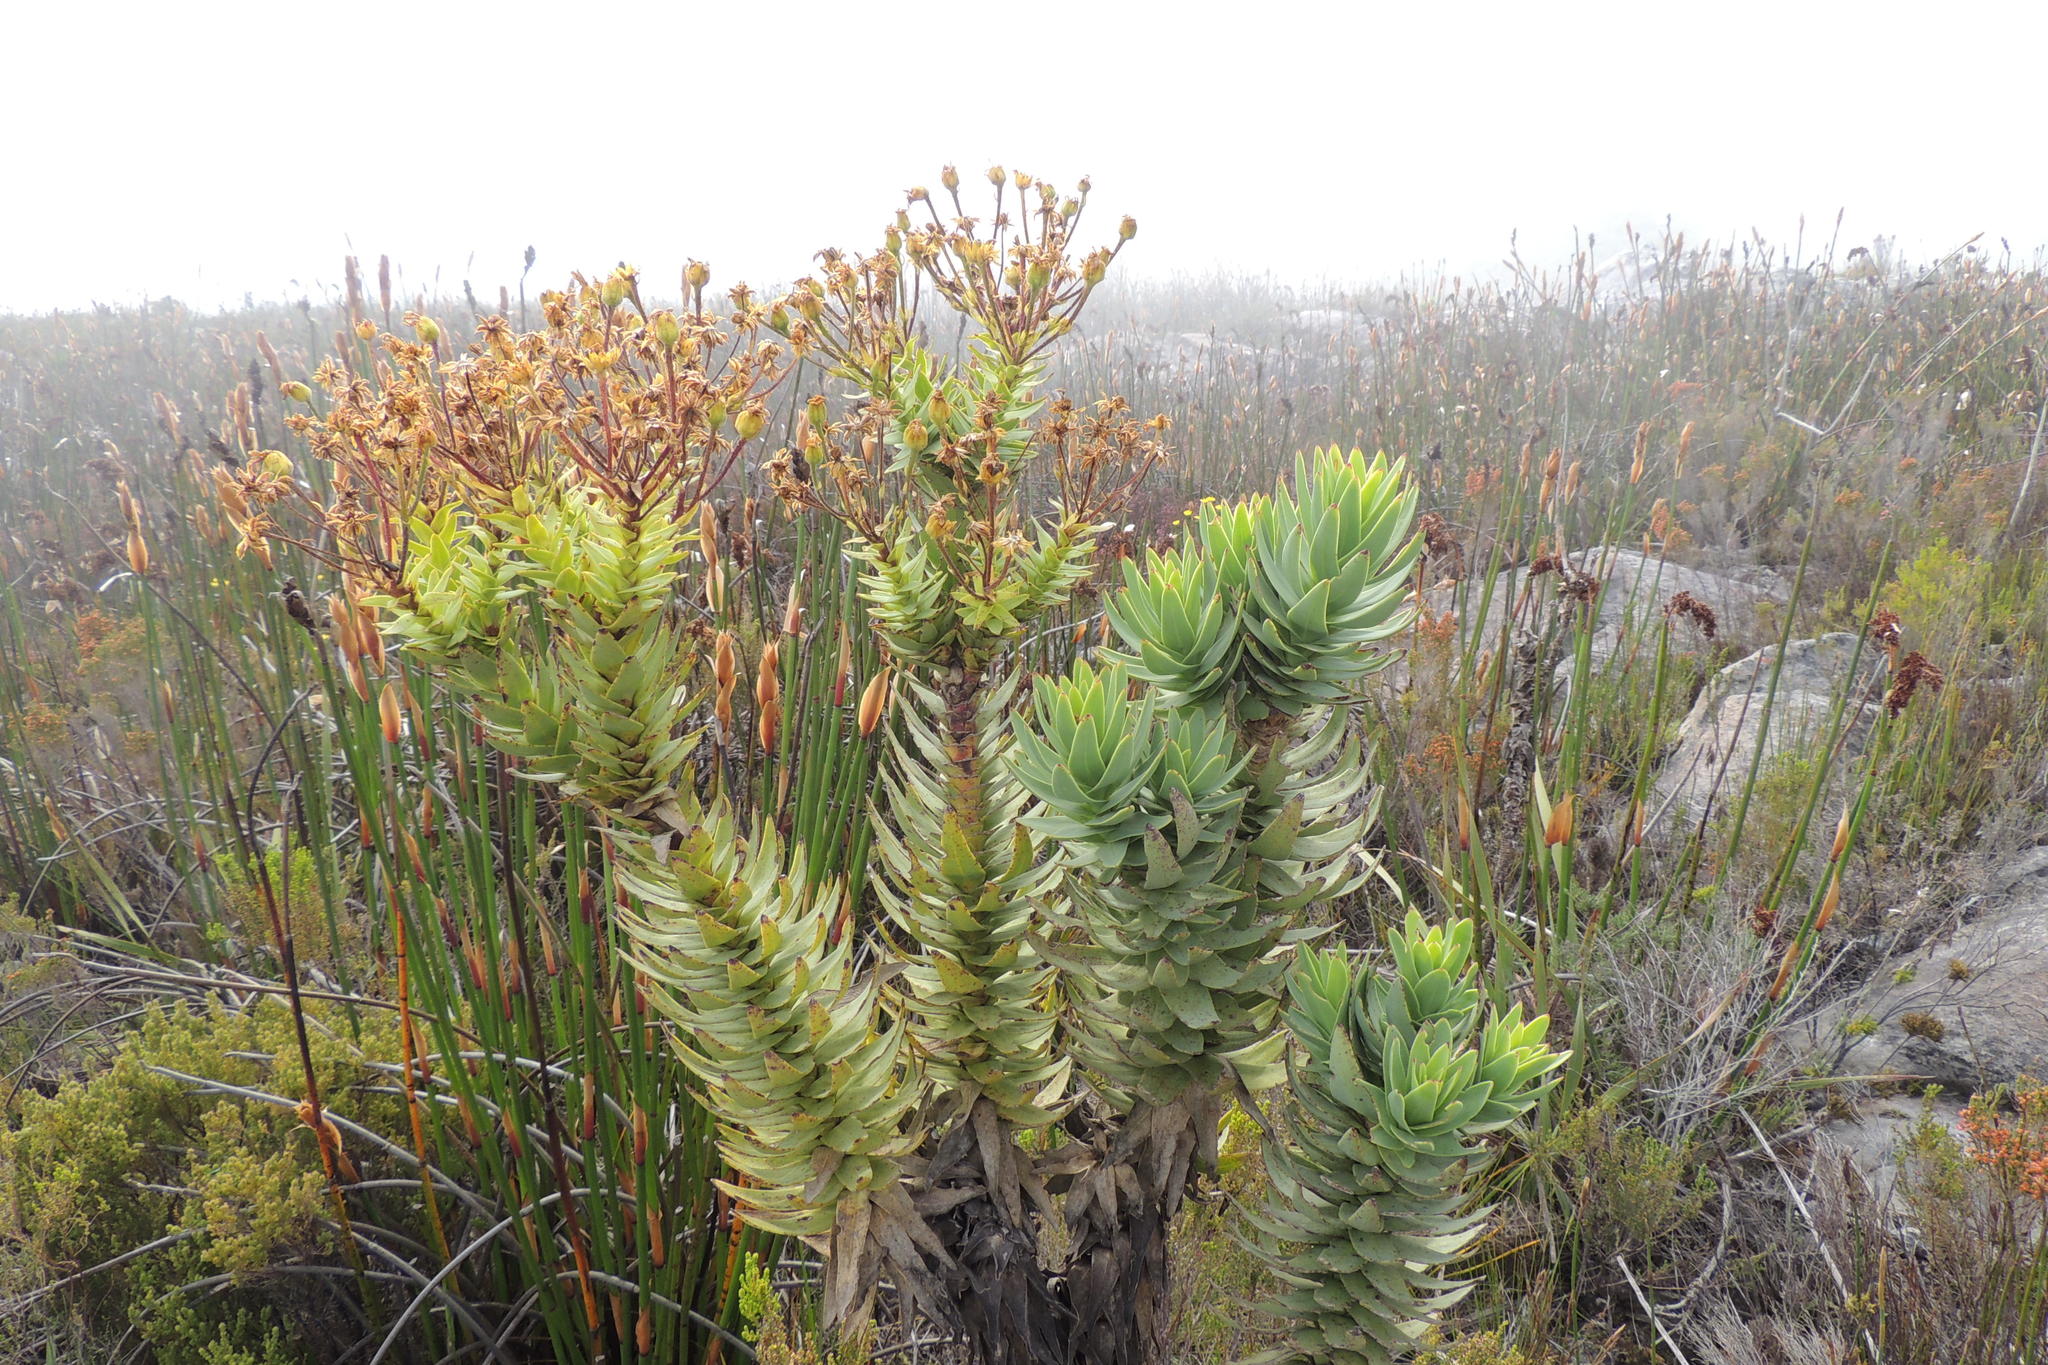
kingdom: Plantae
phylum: Tracheophyta
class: Magnoliopsida
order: Asterales
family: Asteraceae
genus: Osteospermum
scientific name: Osteospermum corymbosum
